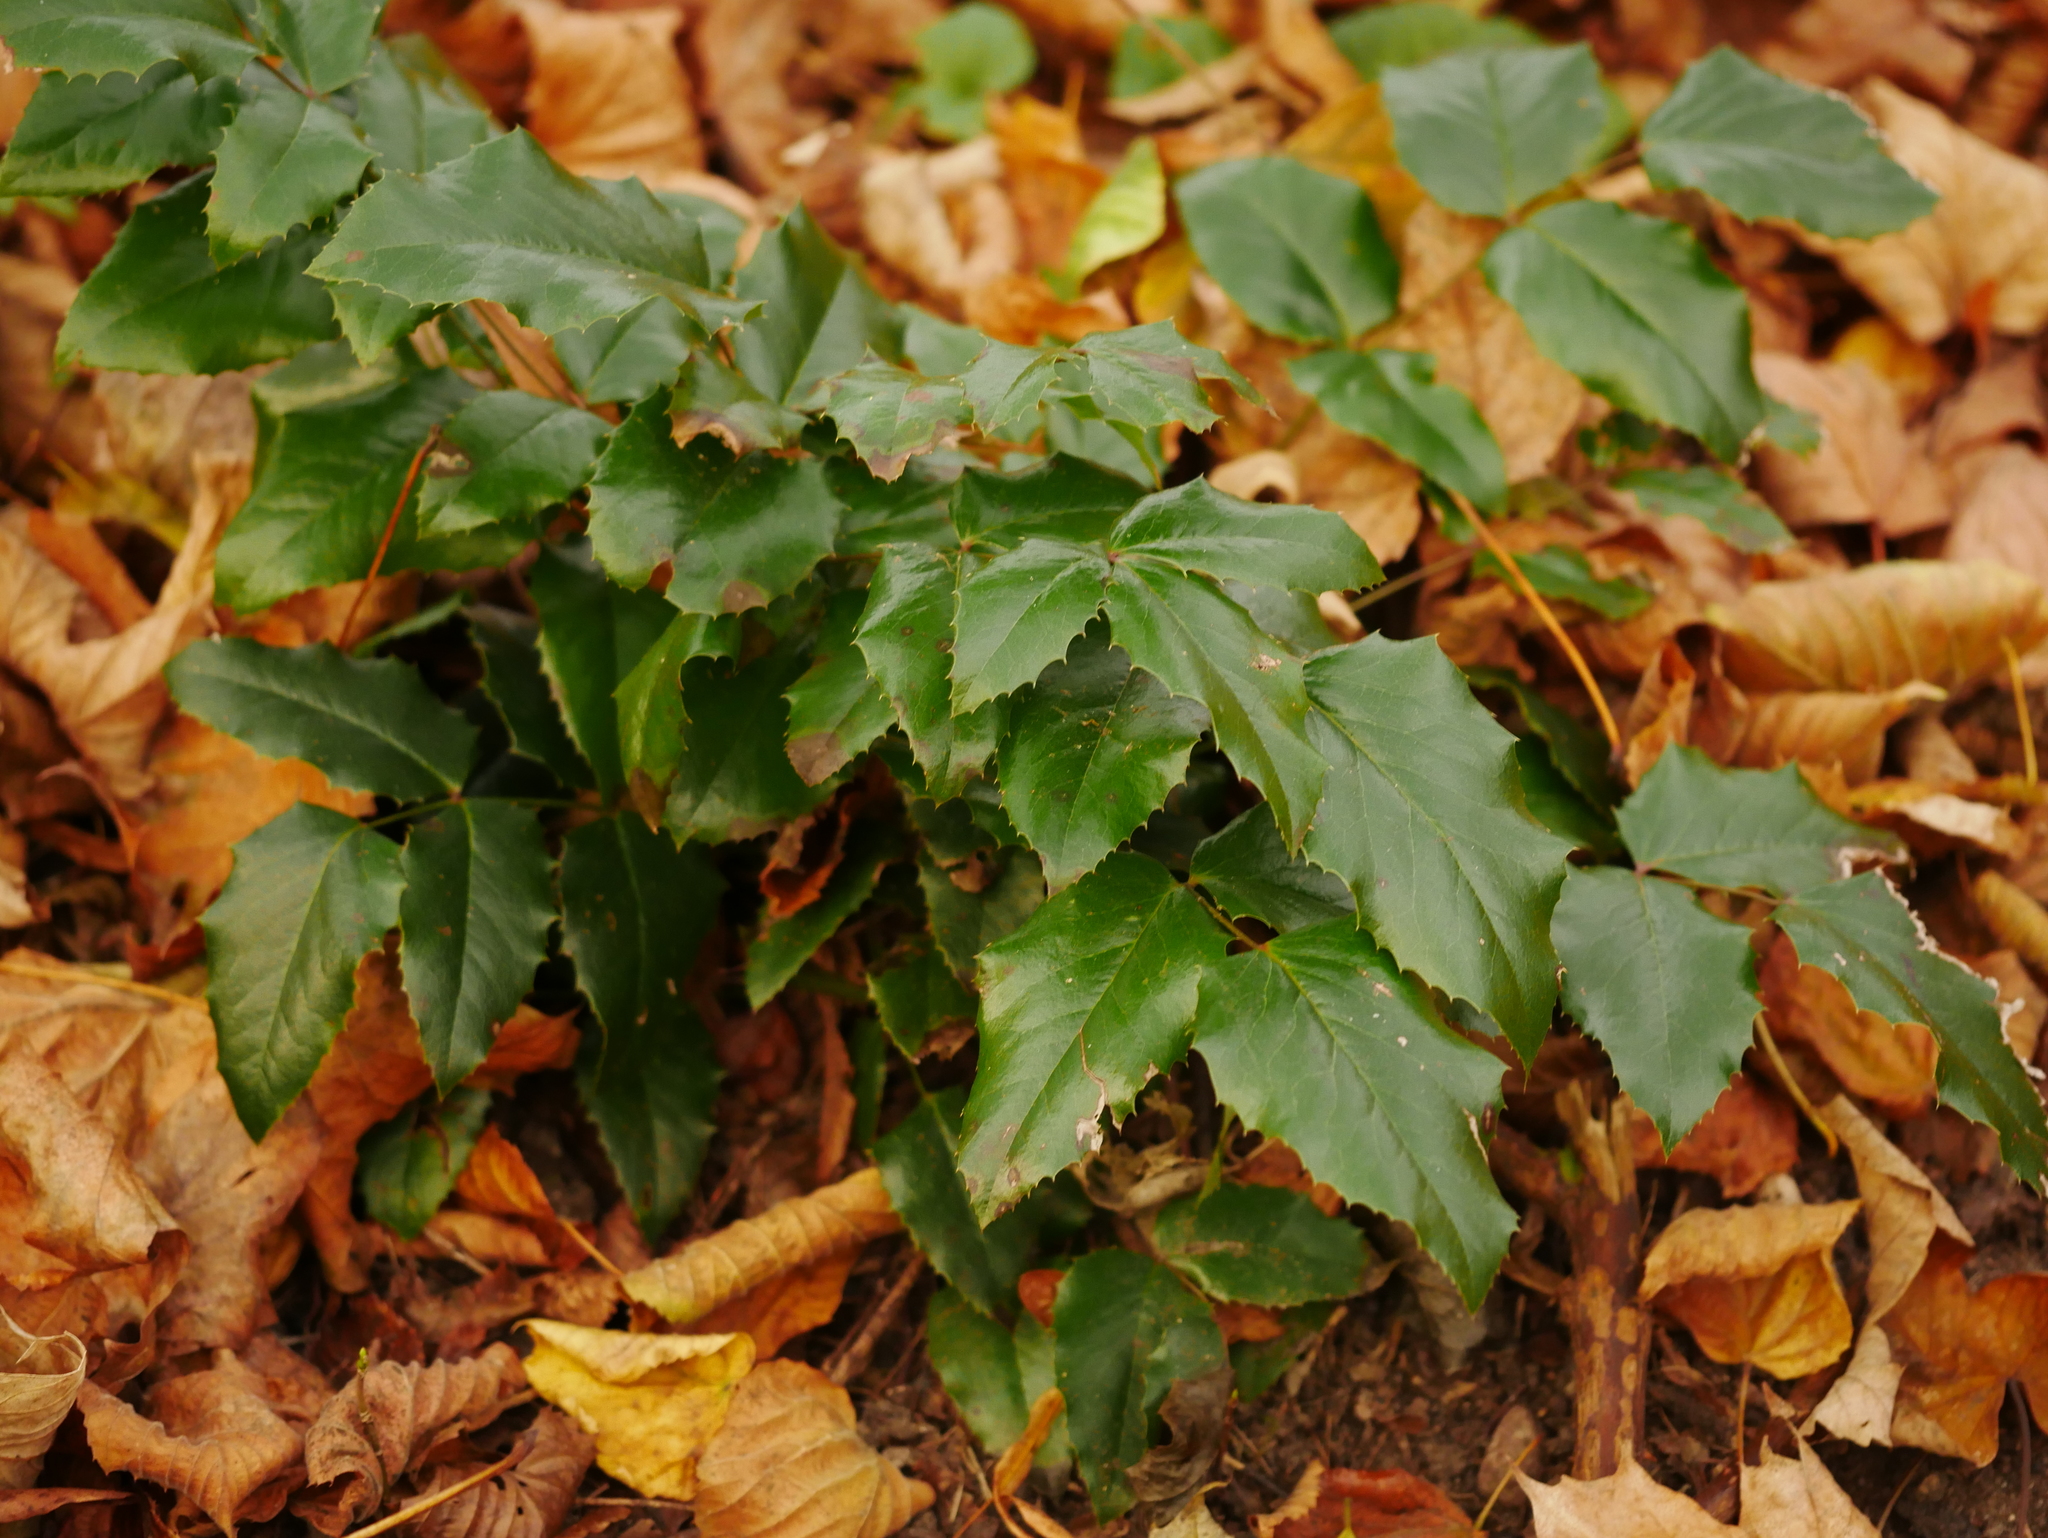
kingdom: Plantae
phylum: Tracheophyta
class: Magnoliopsida
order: Ranunculales
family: Berberidaceae
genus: Mahonia
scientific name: Mahonia aquifolium
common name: Oregon-grape
